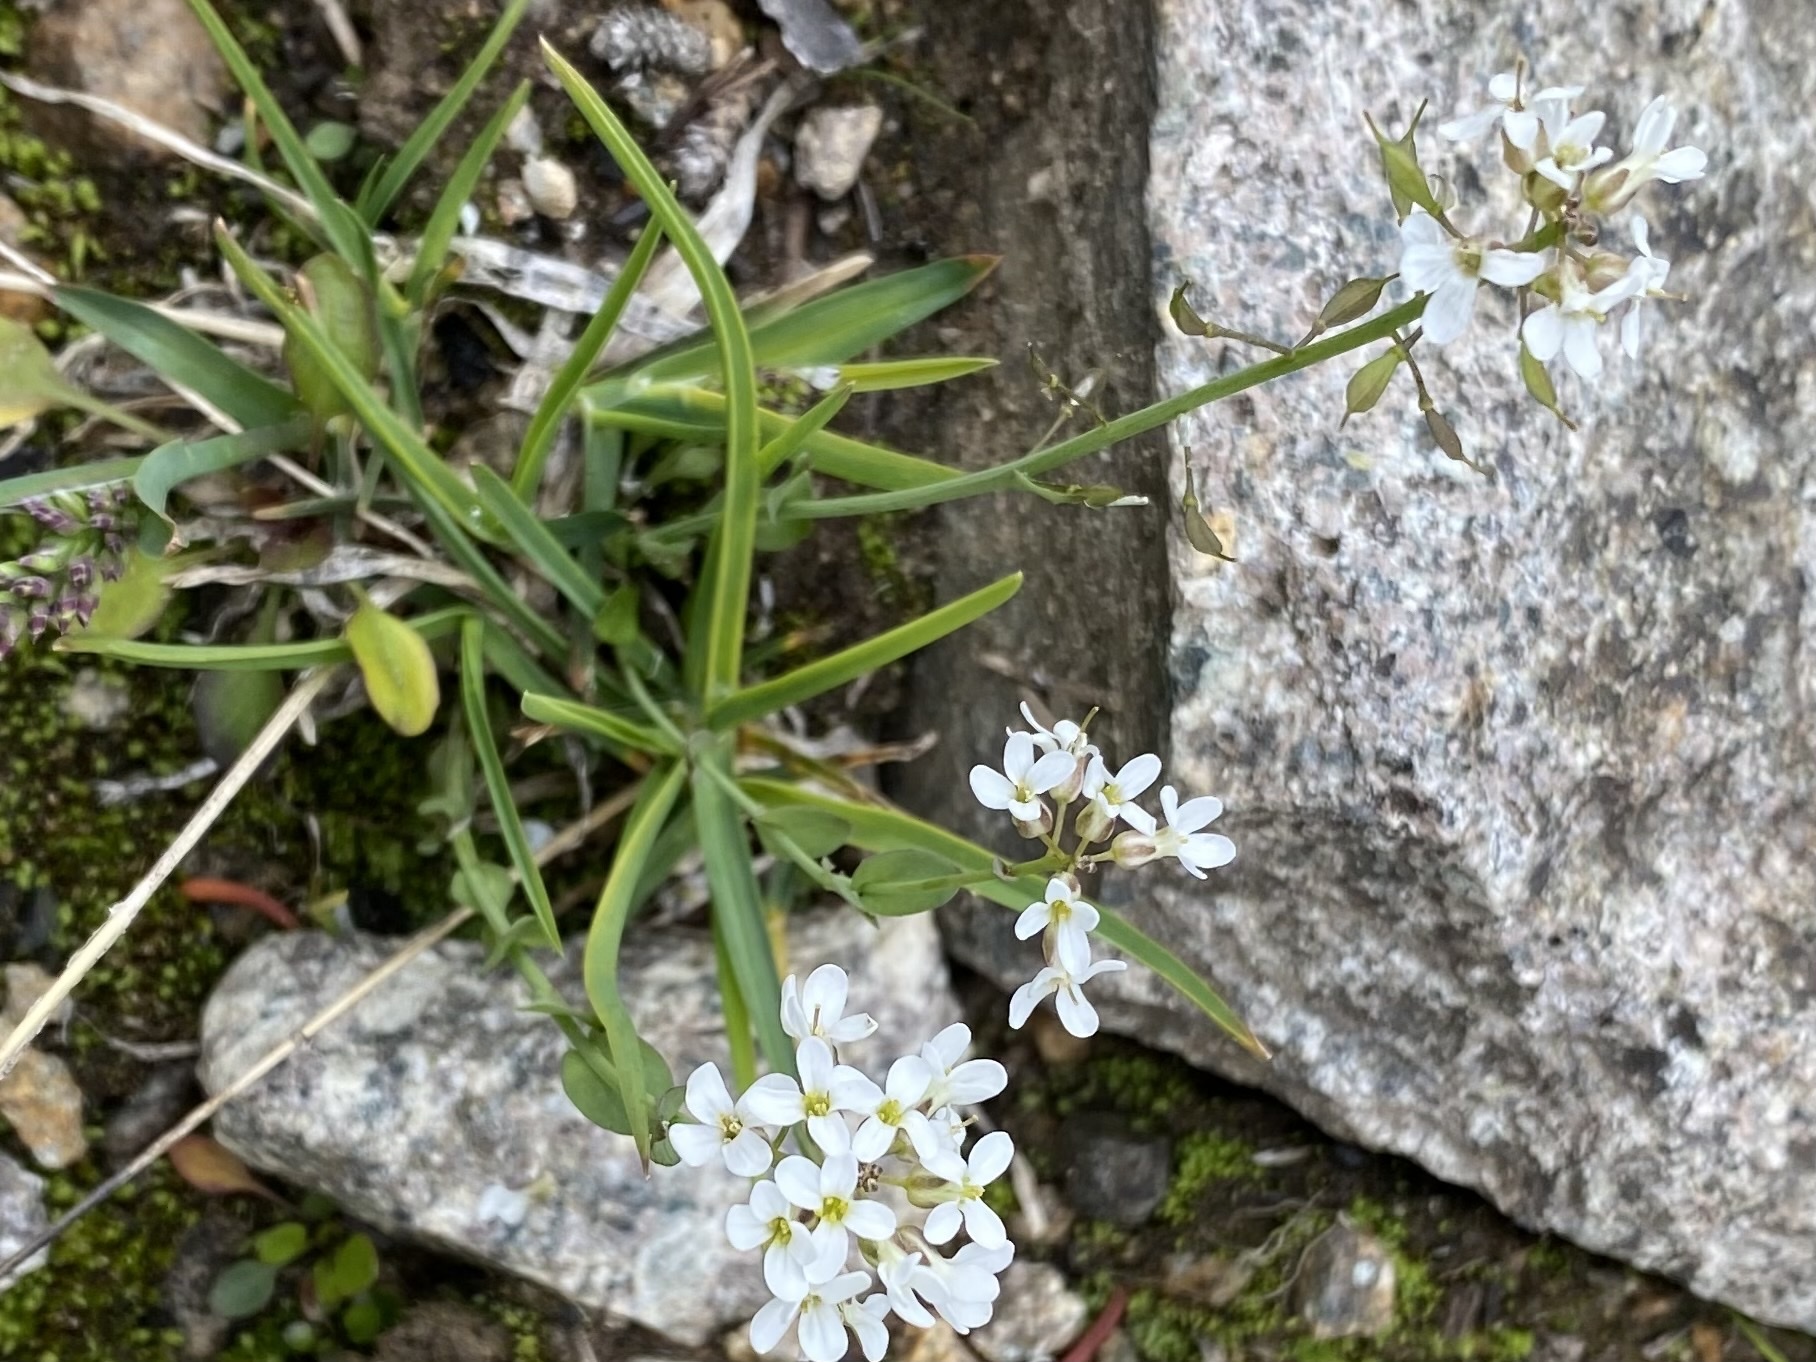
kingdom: Plantae
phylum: Tracheophyta
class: Magnoliopsida
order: Brassicales
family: Brassicaceae
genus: Noccaea
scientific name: Noccaea fendleri
